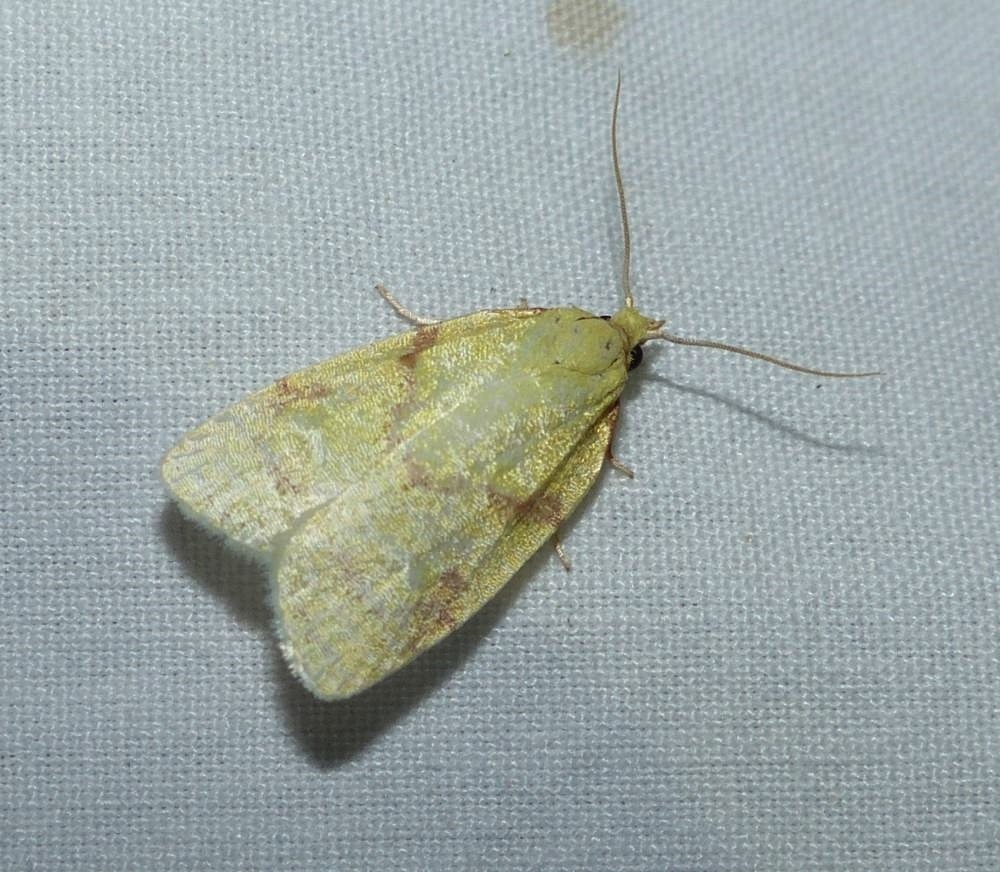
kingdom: Animalia
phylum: Arthropoda
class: Insecta
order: Lepidoptera
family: Tortricidae
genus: Cenopis
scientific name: Cenopis pettitana
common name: Maple-basswood leafroller moth
